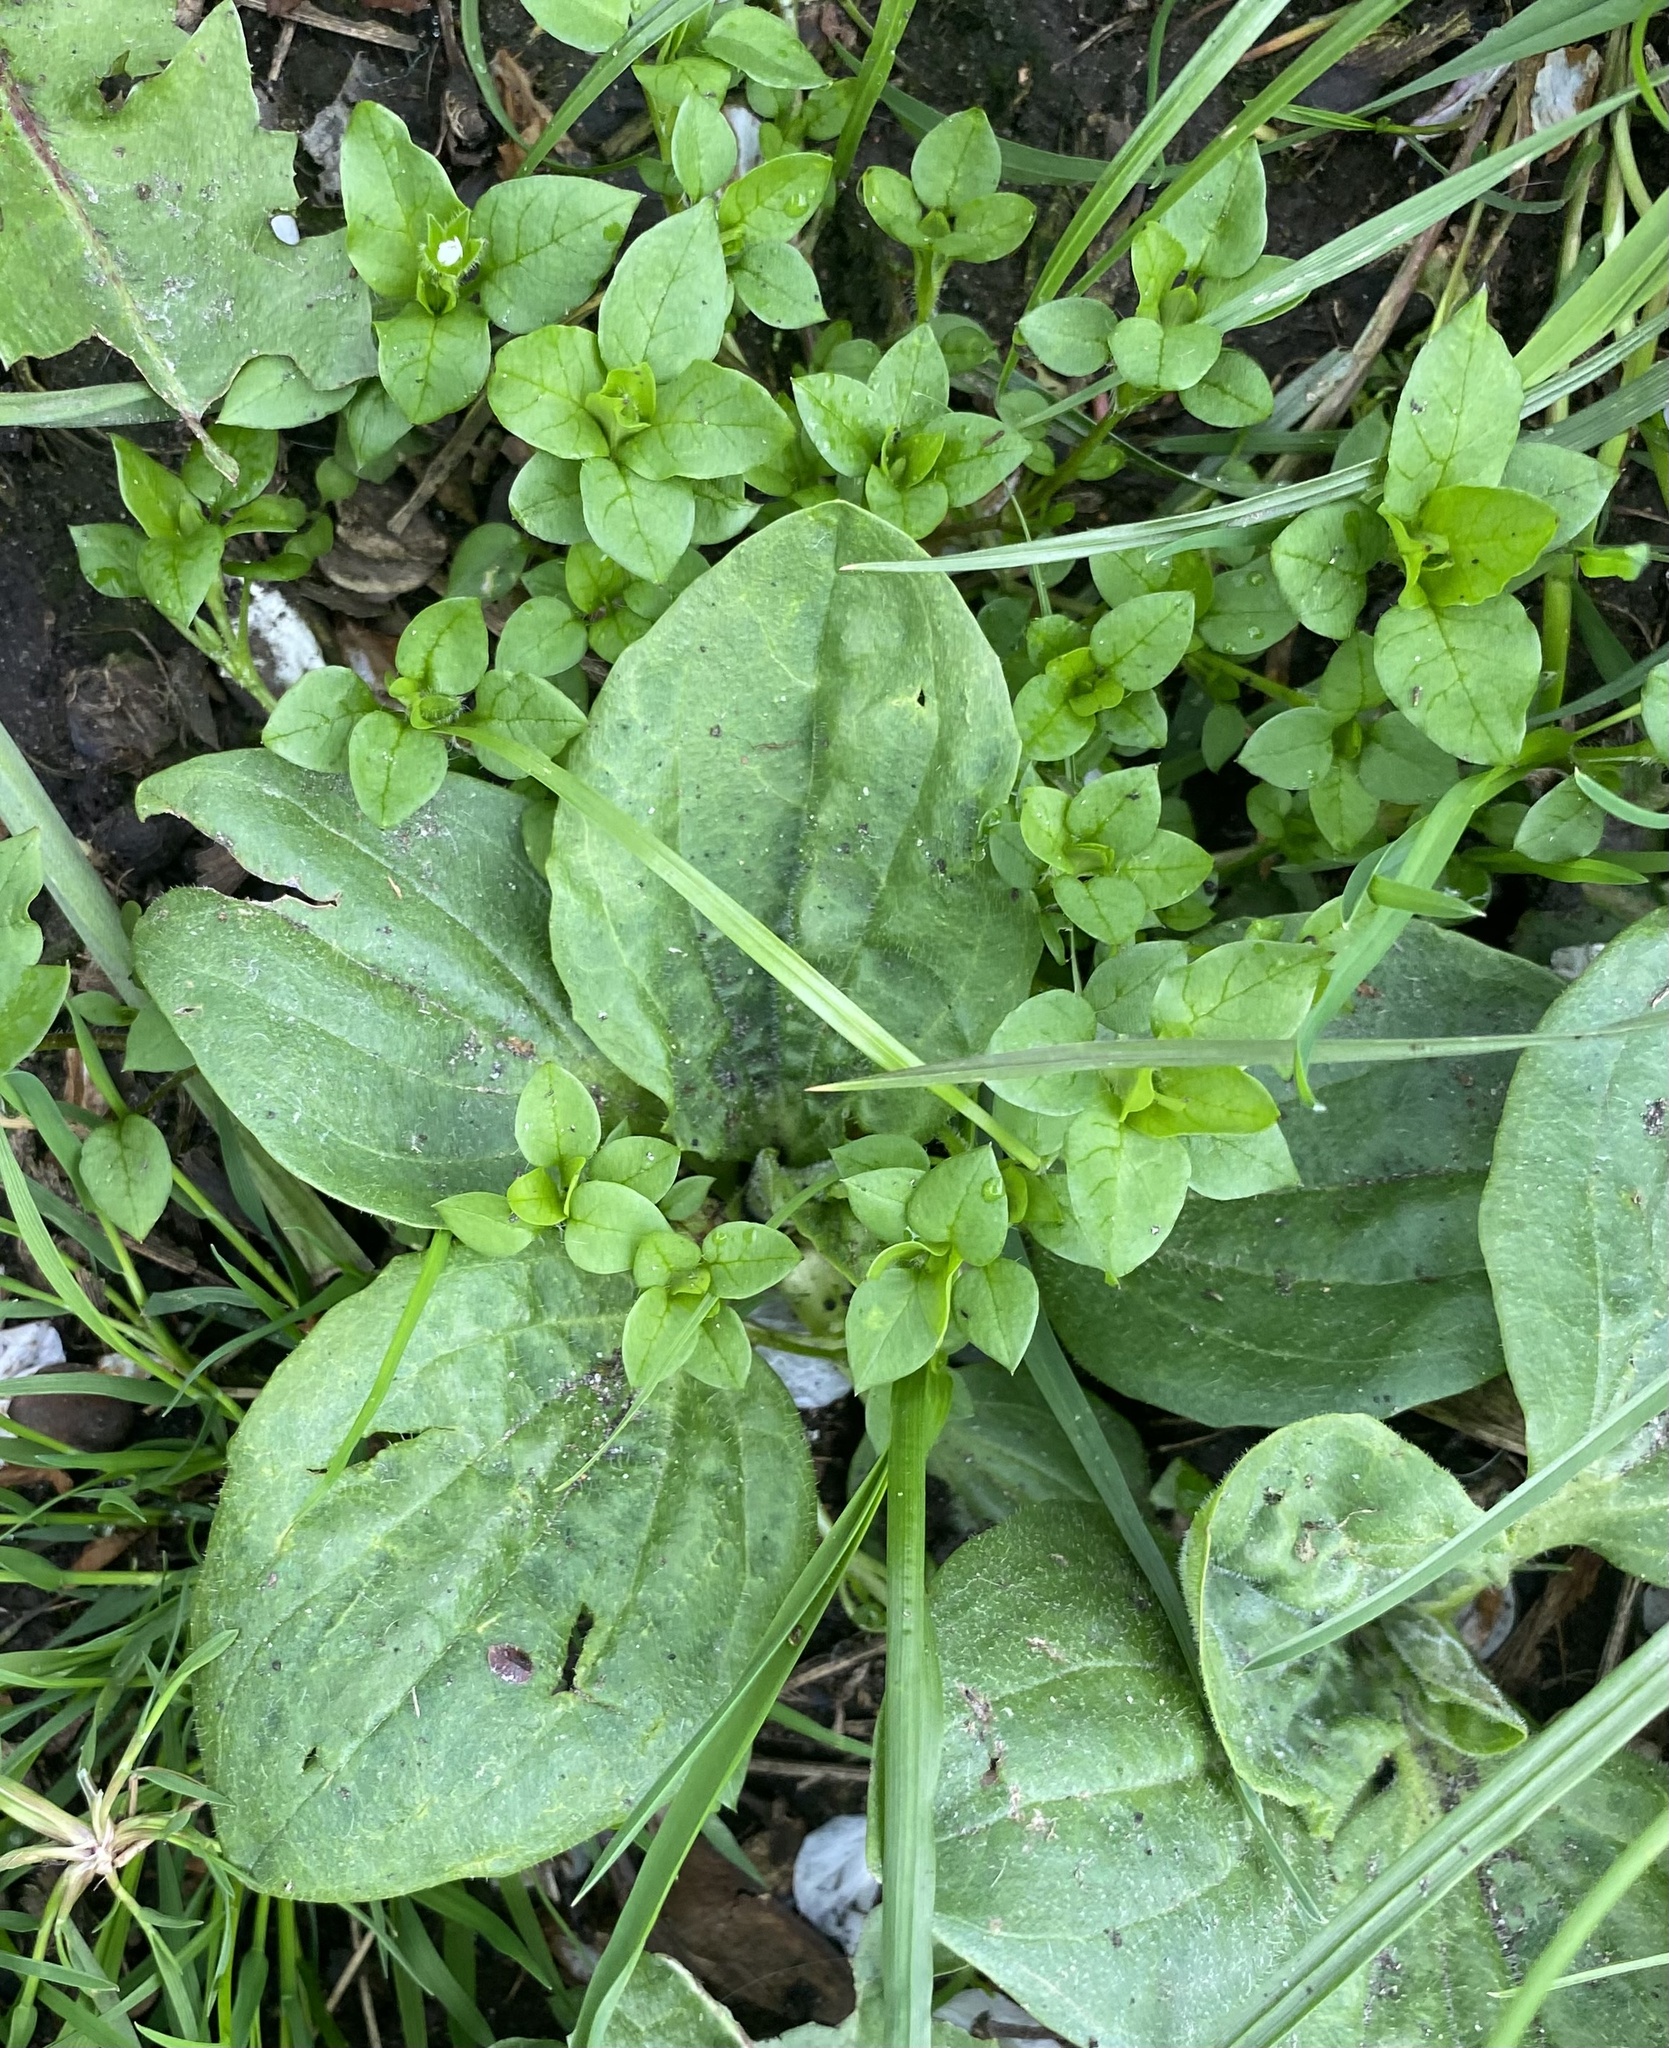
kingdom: Plantae
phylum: Tracheophyta
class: Magnoliopsida
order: Lamiales
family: Plantaginaceae
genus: Plantago
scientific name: Plantago major
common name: Common plantain
